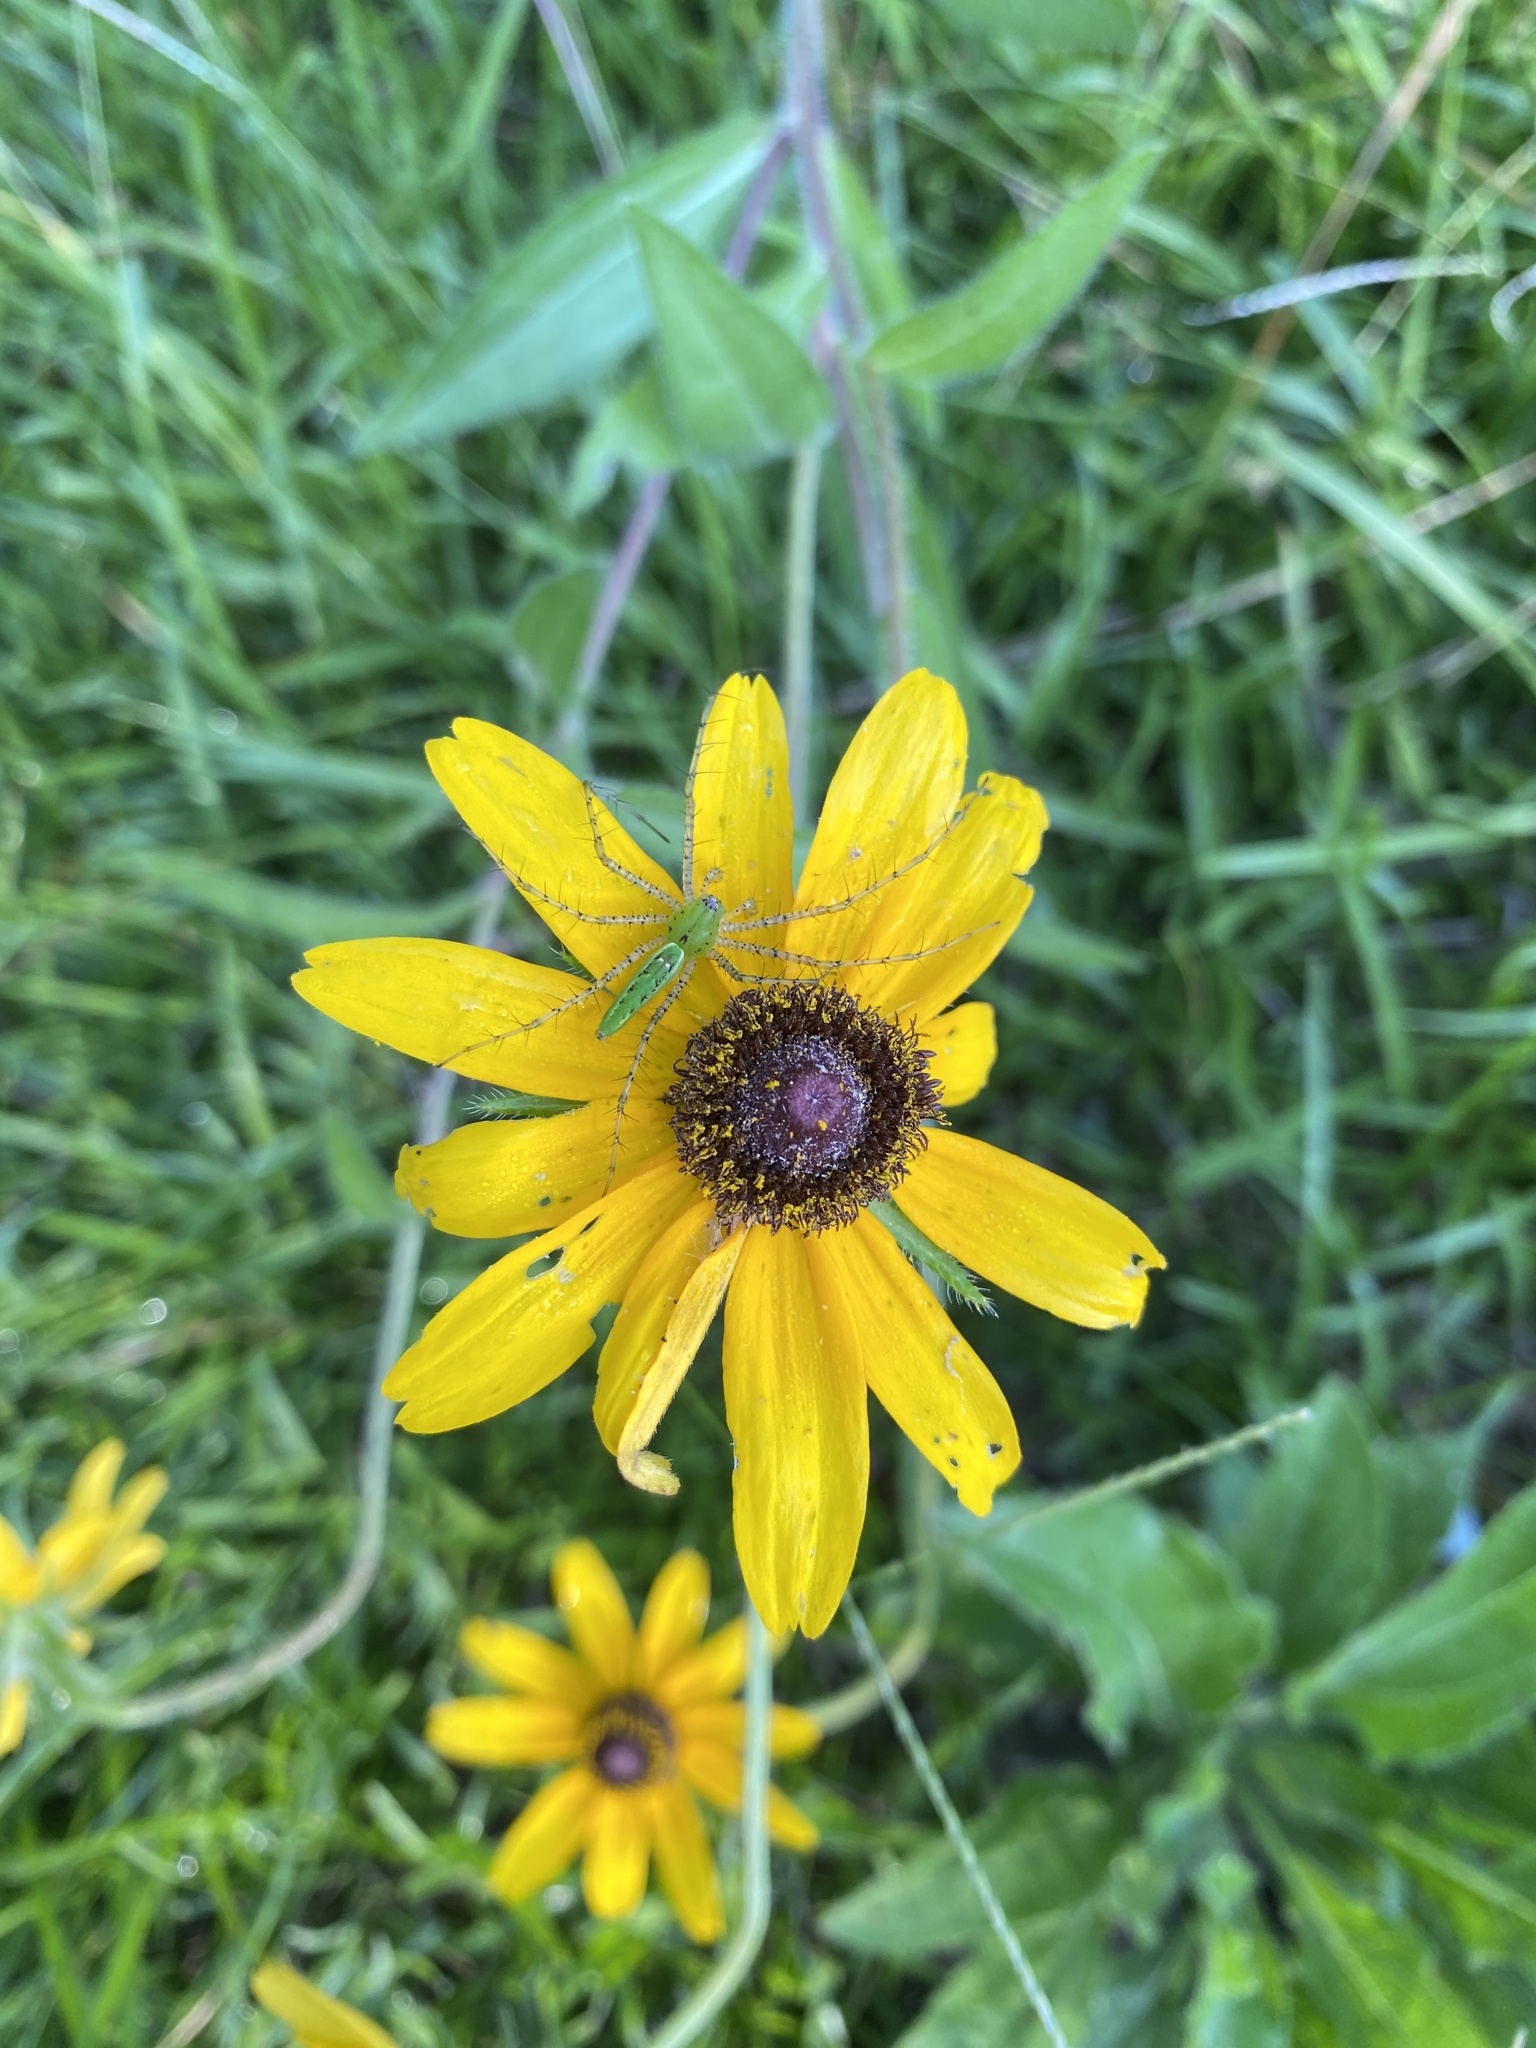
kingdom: Animalia
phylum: Arthropoda
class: Arachnida
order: Araneae
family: Oxyopidae
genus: Peucetia
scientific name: Peucetia viridans
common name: Lynx spiders
